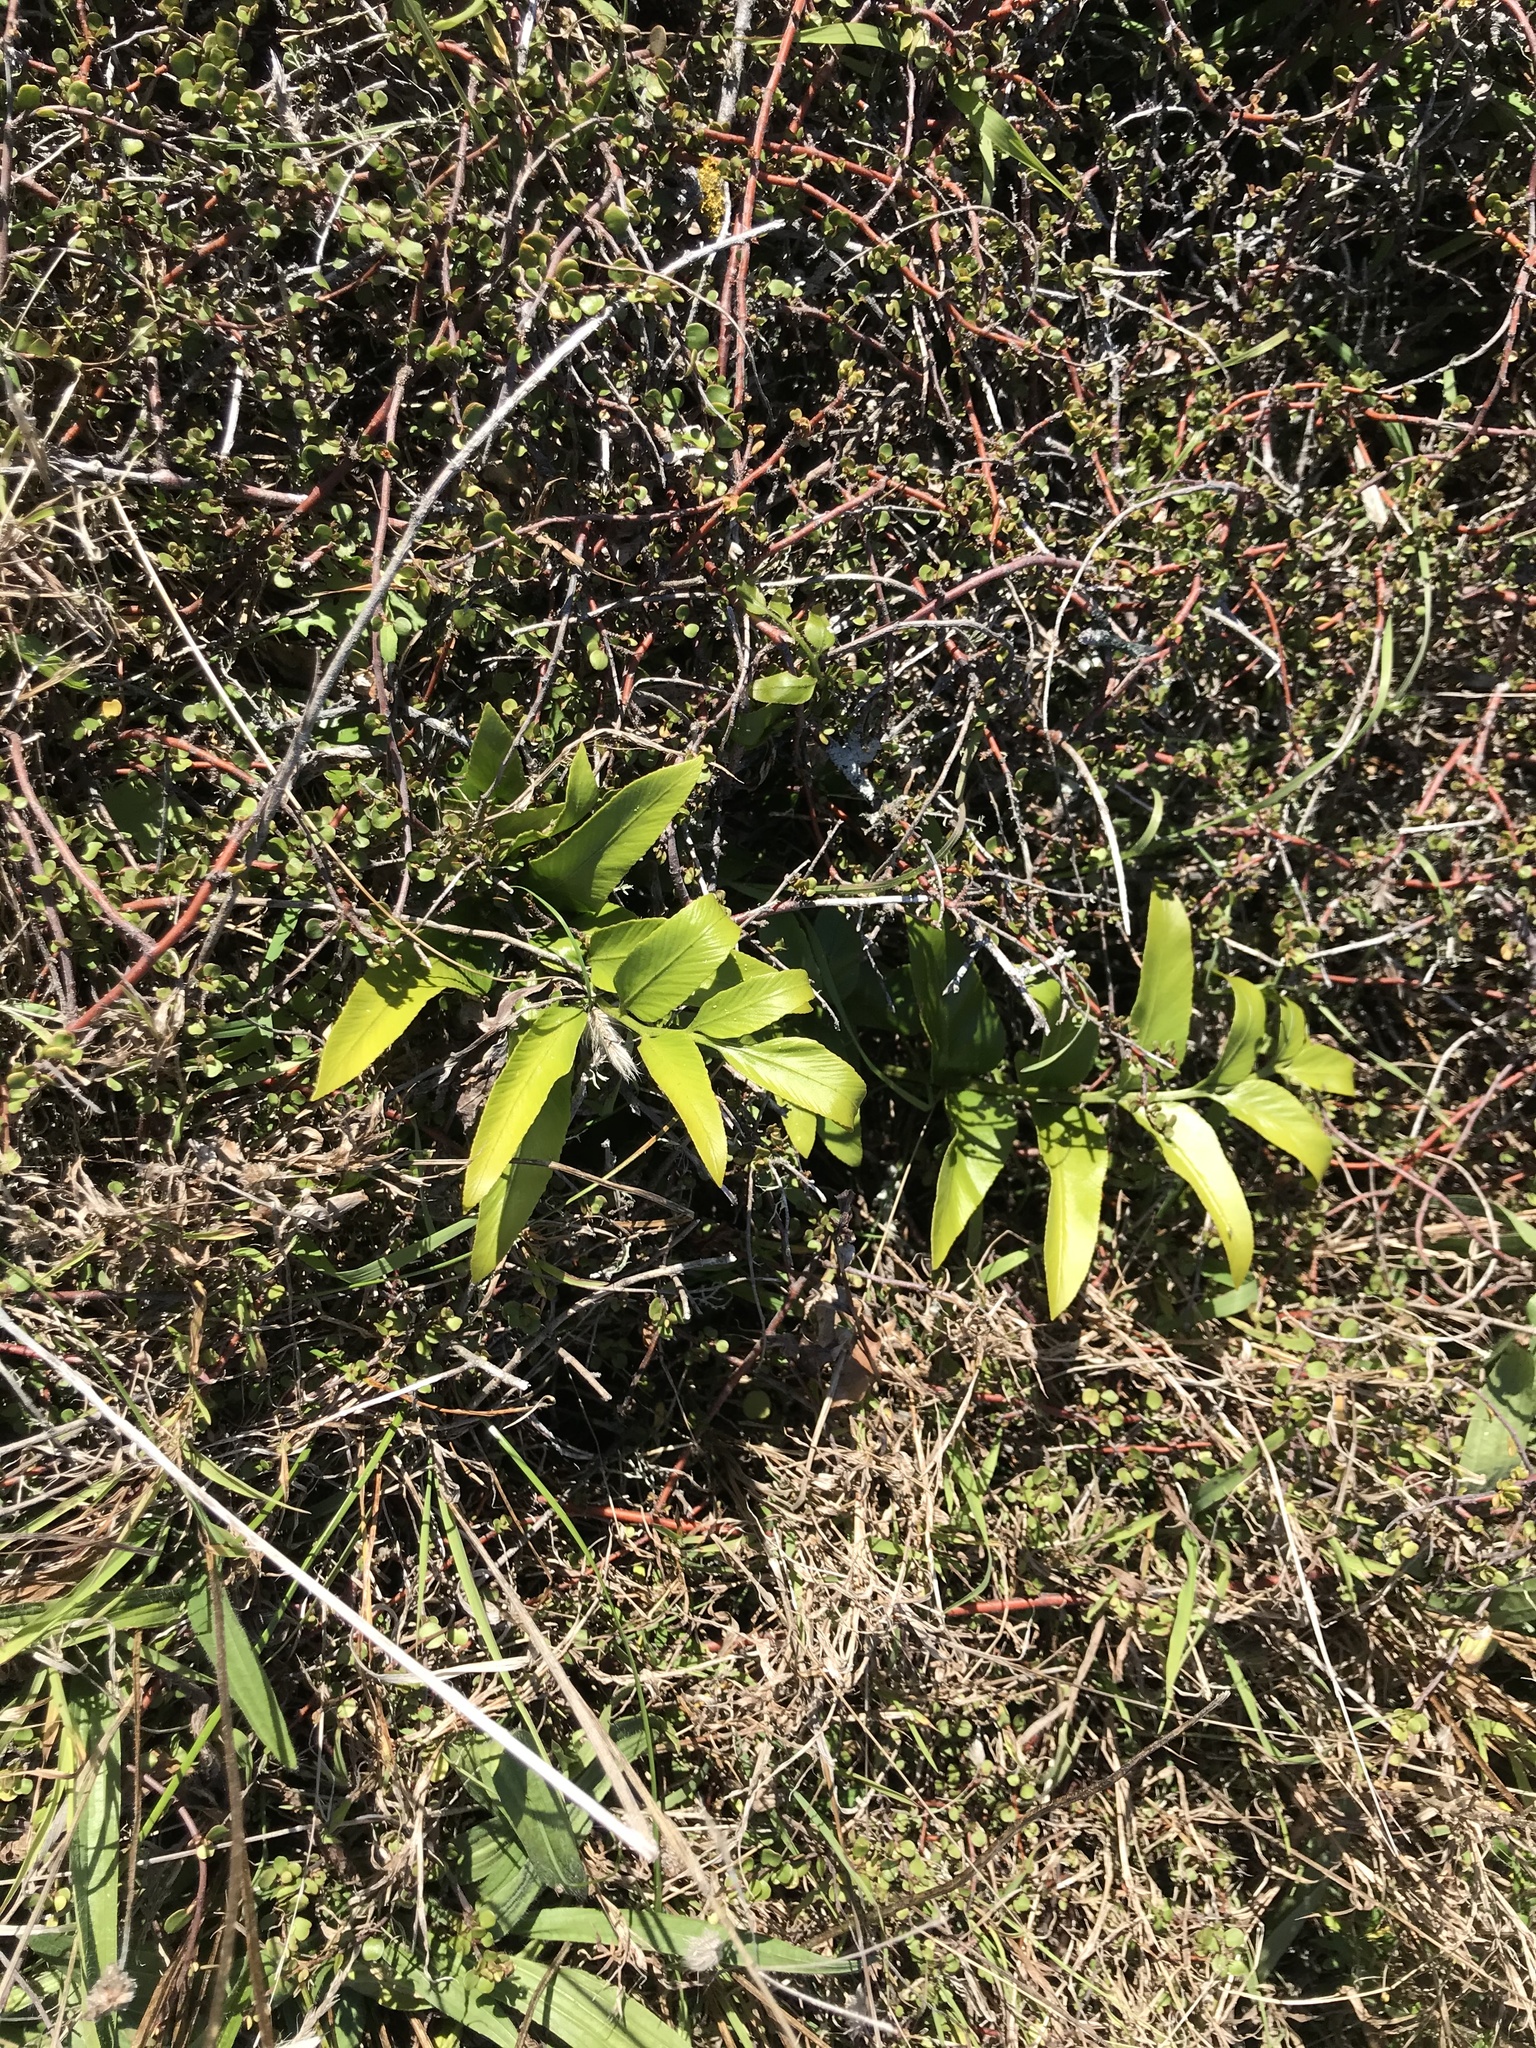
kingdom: Plantae
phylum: Tracheophyta
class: Polypodiopsida
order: Polypodiales
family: Aspleniaceae
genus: Asplenium
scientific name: Asplenium oblongifolium
